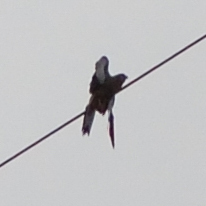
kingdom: Animalia
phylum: Chordata
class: Aves
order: Falconiformes
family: Falconidae
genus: Falco
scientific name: Falco tinnunculus
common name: Common kestrel
